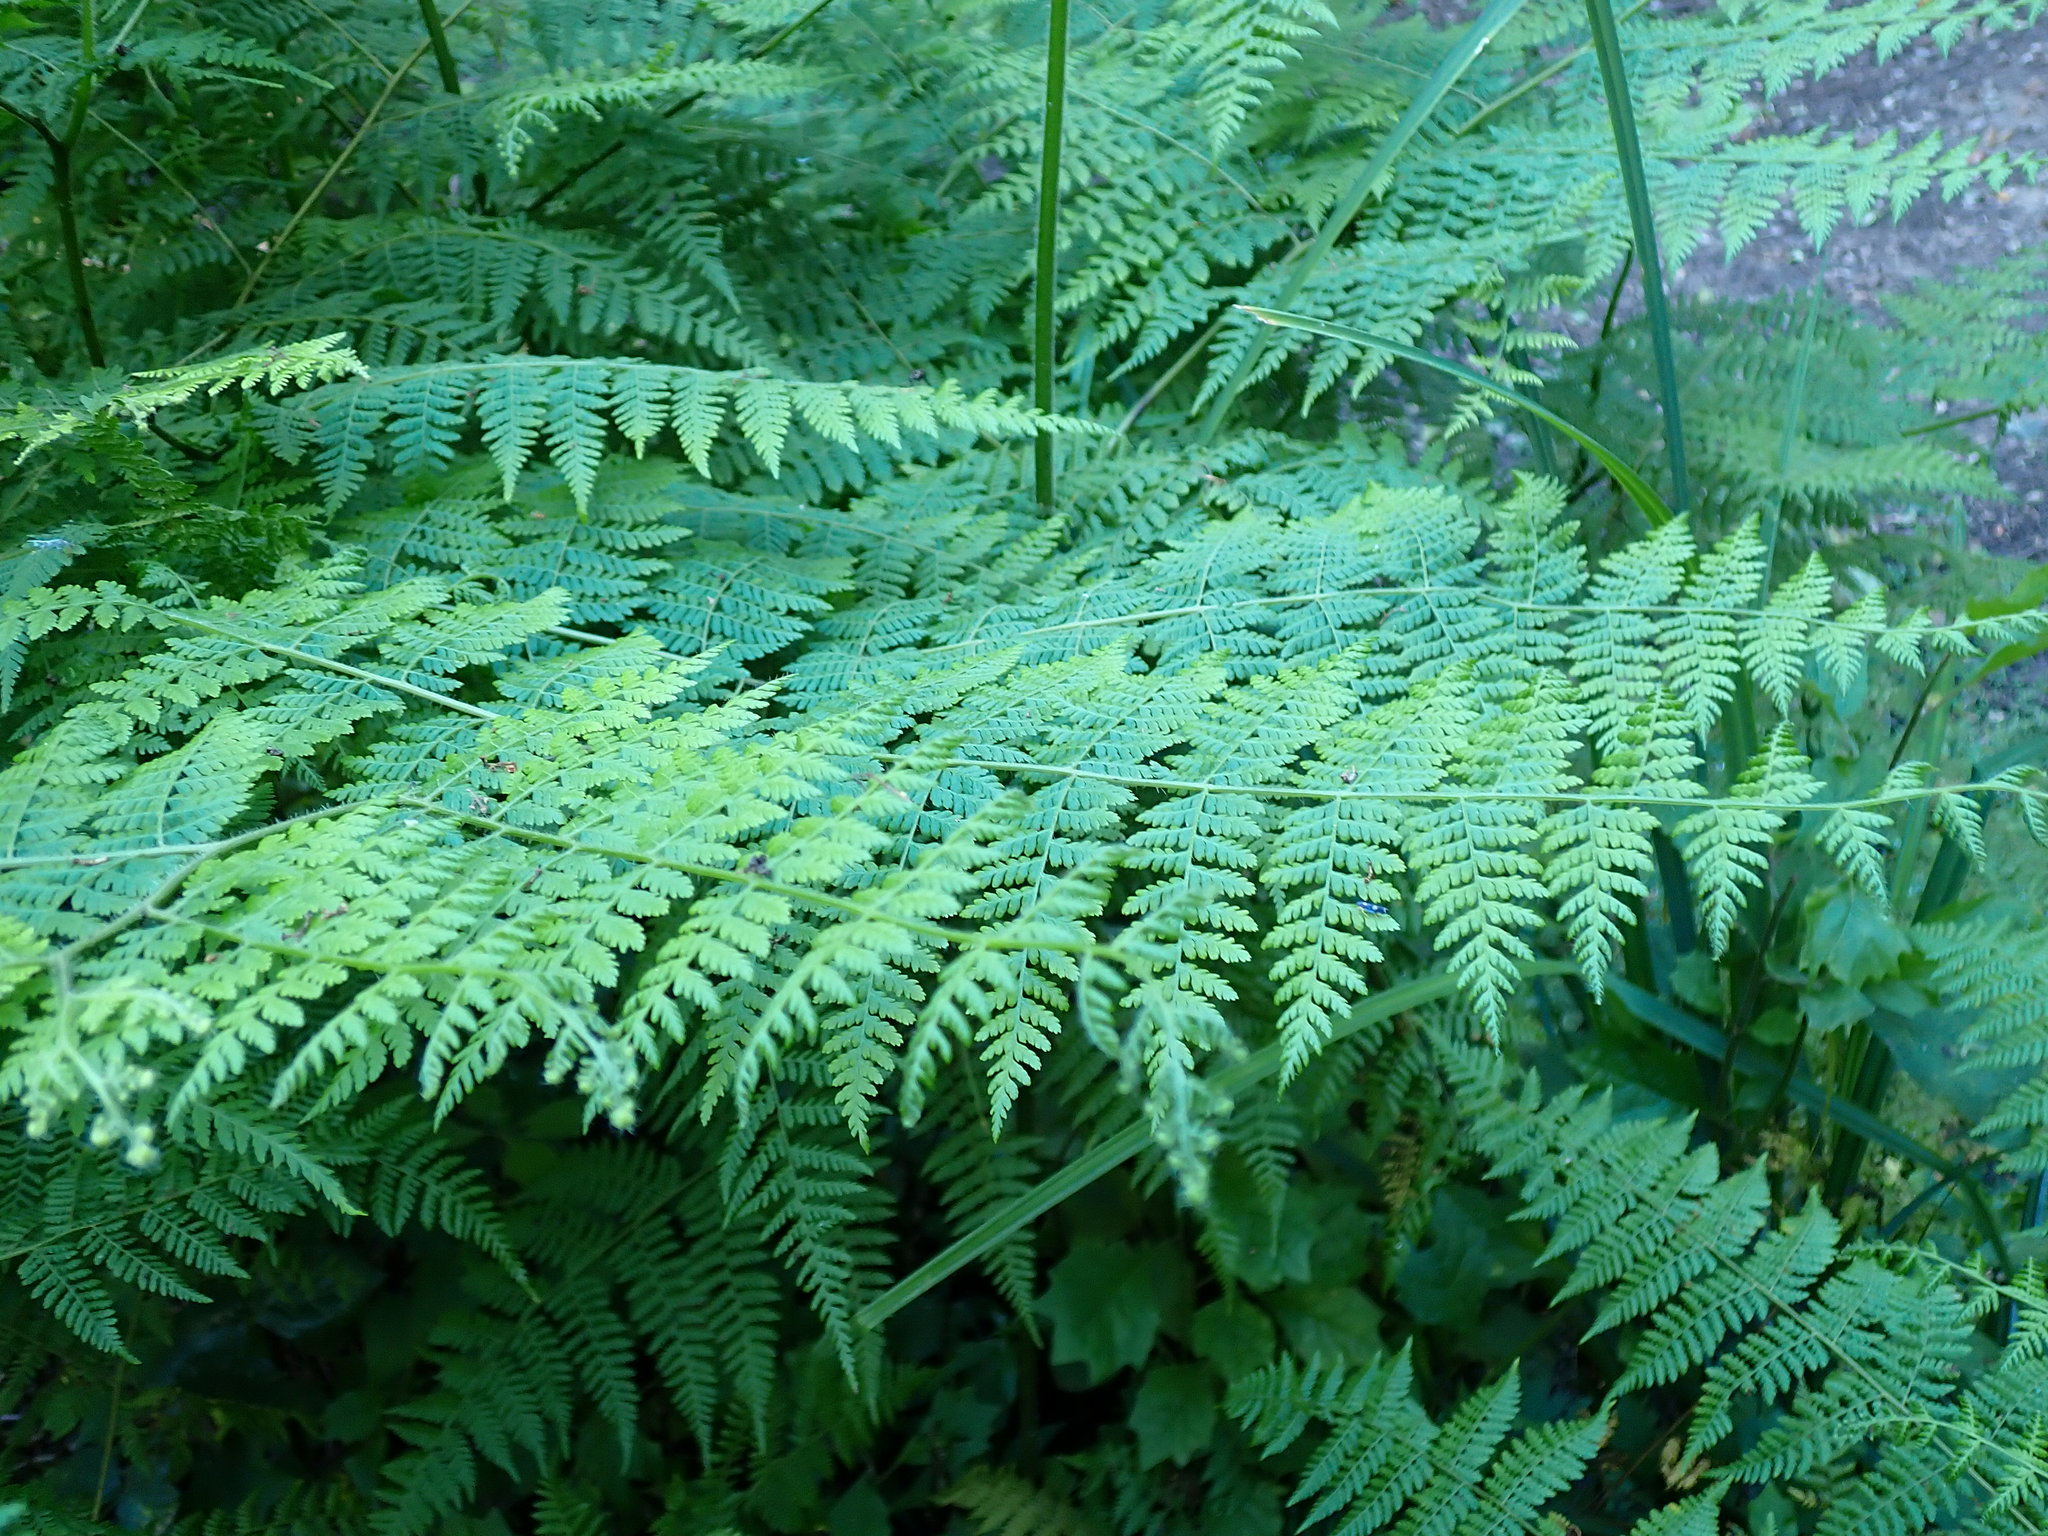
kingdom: Plantae
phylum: Tracheophyta
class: Polypodiopsida
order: Polypodiales
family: Dennstaedtiaceae
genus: Hypolepis
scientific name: Hypolepis sparsisora
